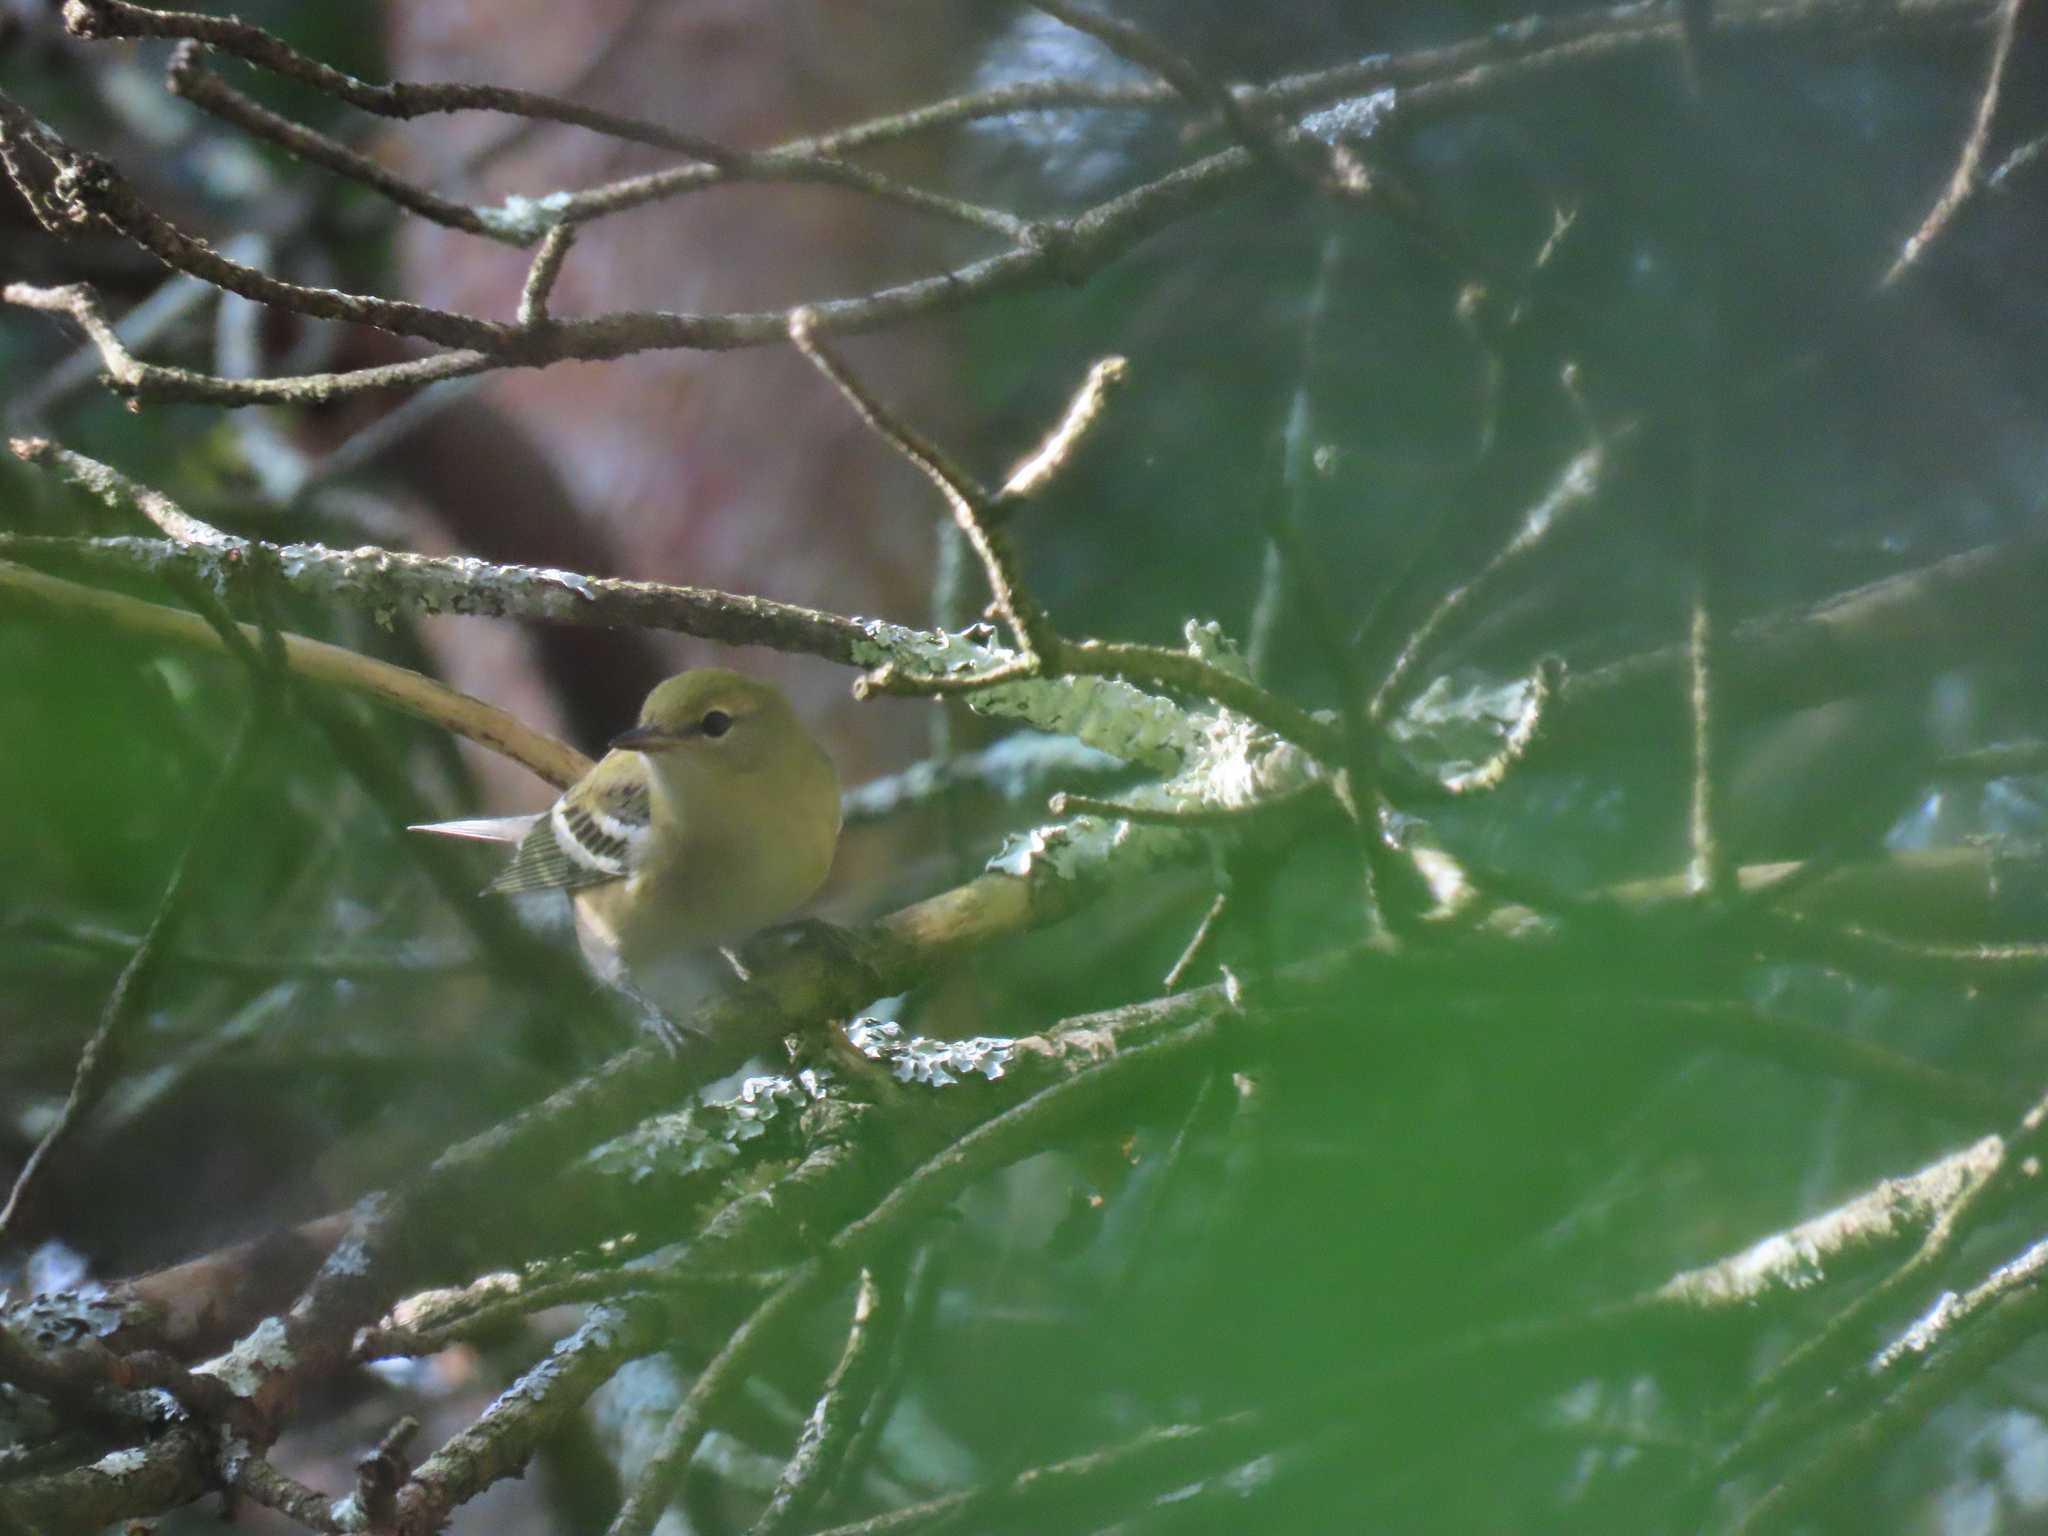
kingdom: Animalia
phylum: Chordata
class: Aves
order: Passeriformes
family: Parulidae
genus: Setophaga
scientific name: Setophaga castanea
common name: Bay-breasted warbler
